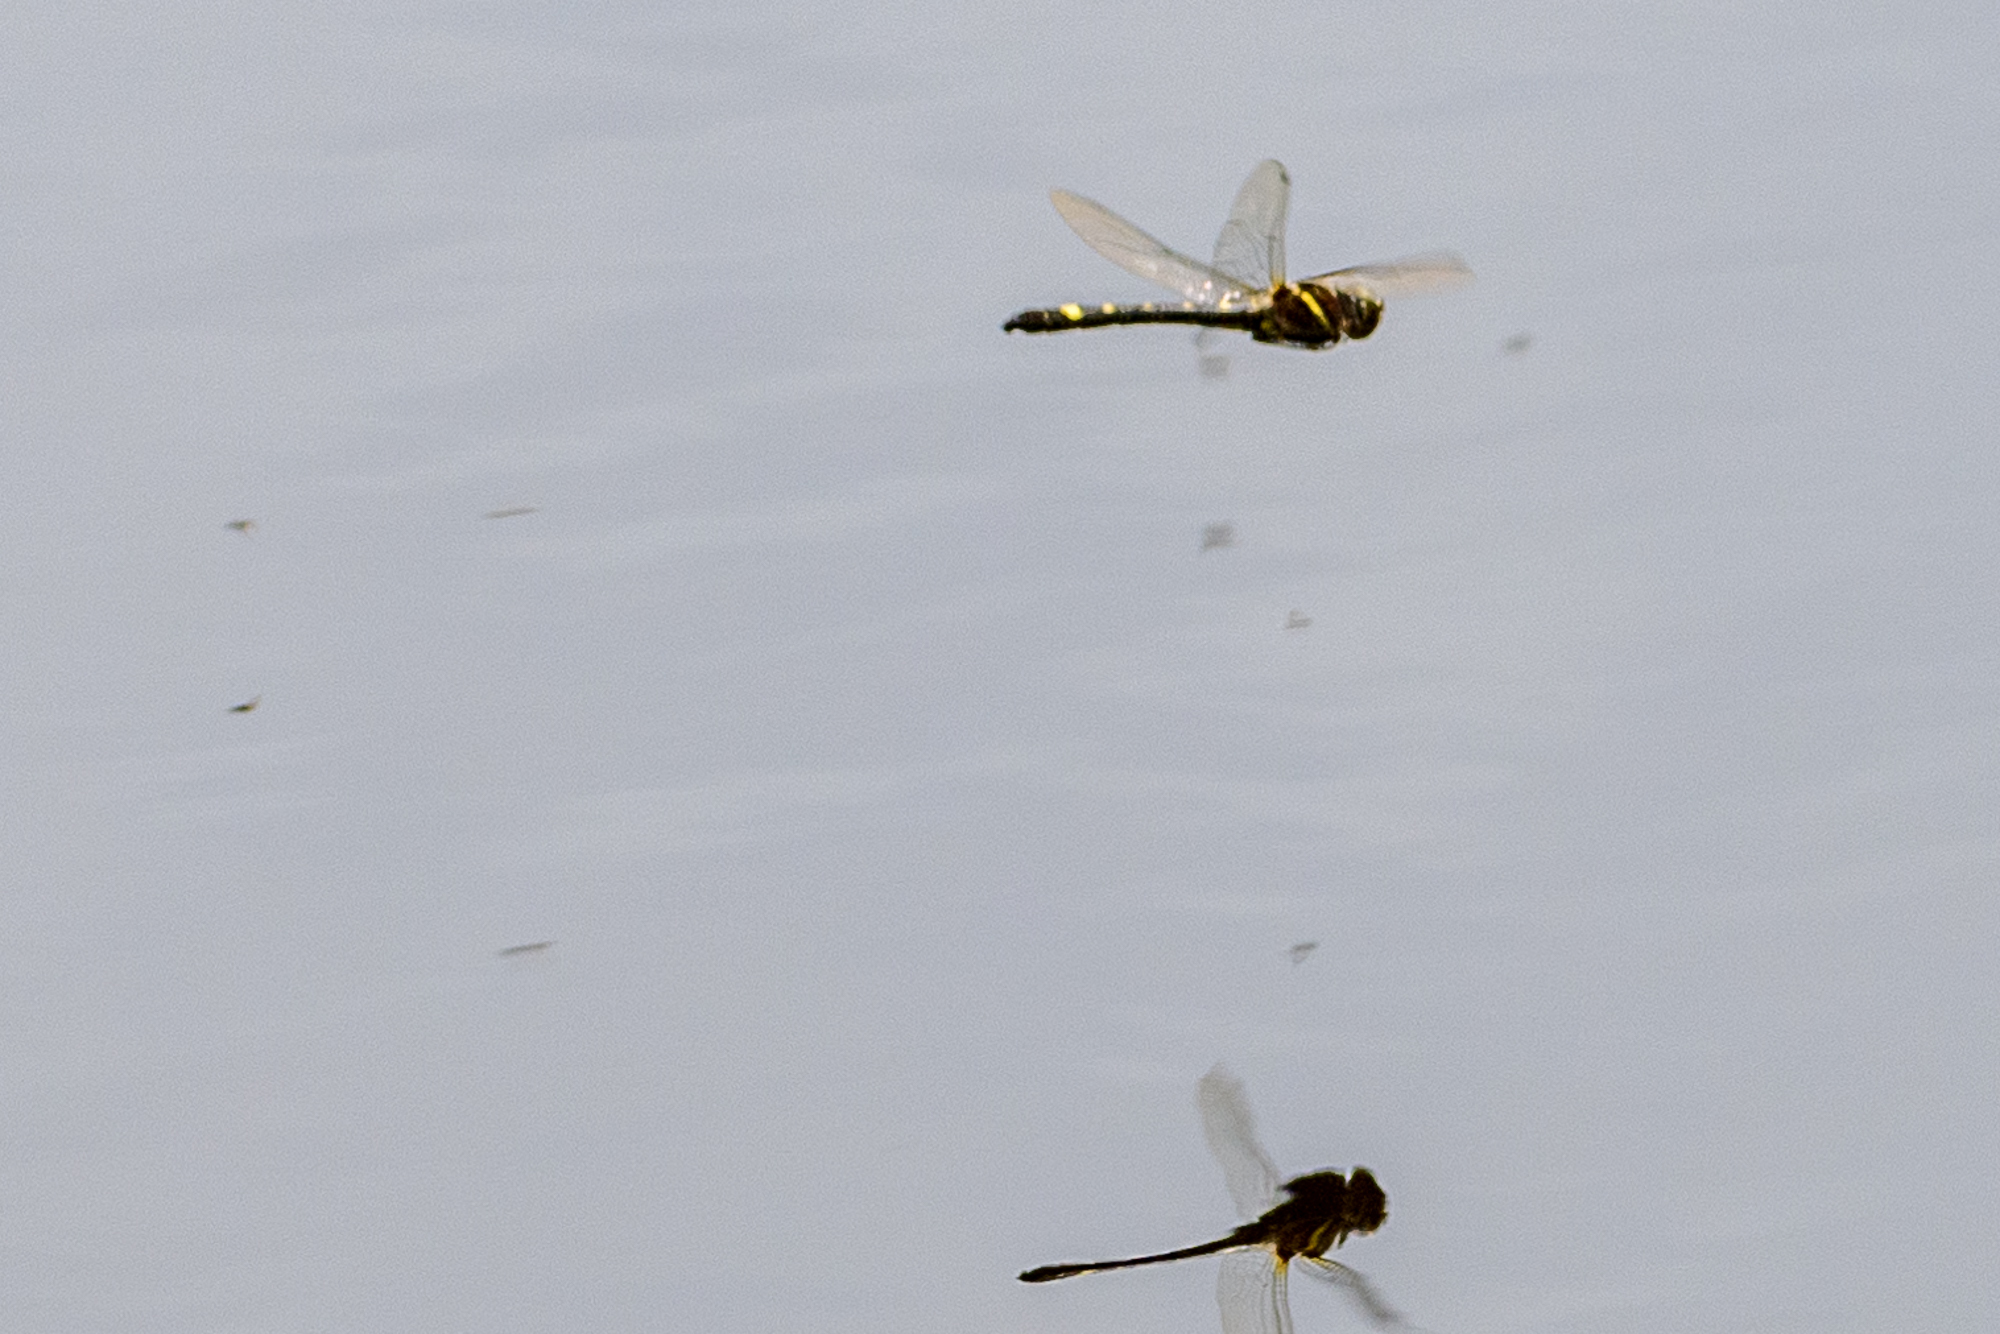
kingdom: Animalia
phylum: Arthropoda
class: Insecta
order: Odonata
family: Macromiidae
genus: Macromia
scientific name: Macromia illinoiensis
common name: Swift river cruiser
